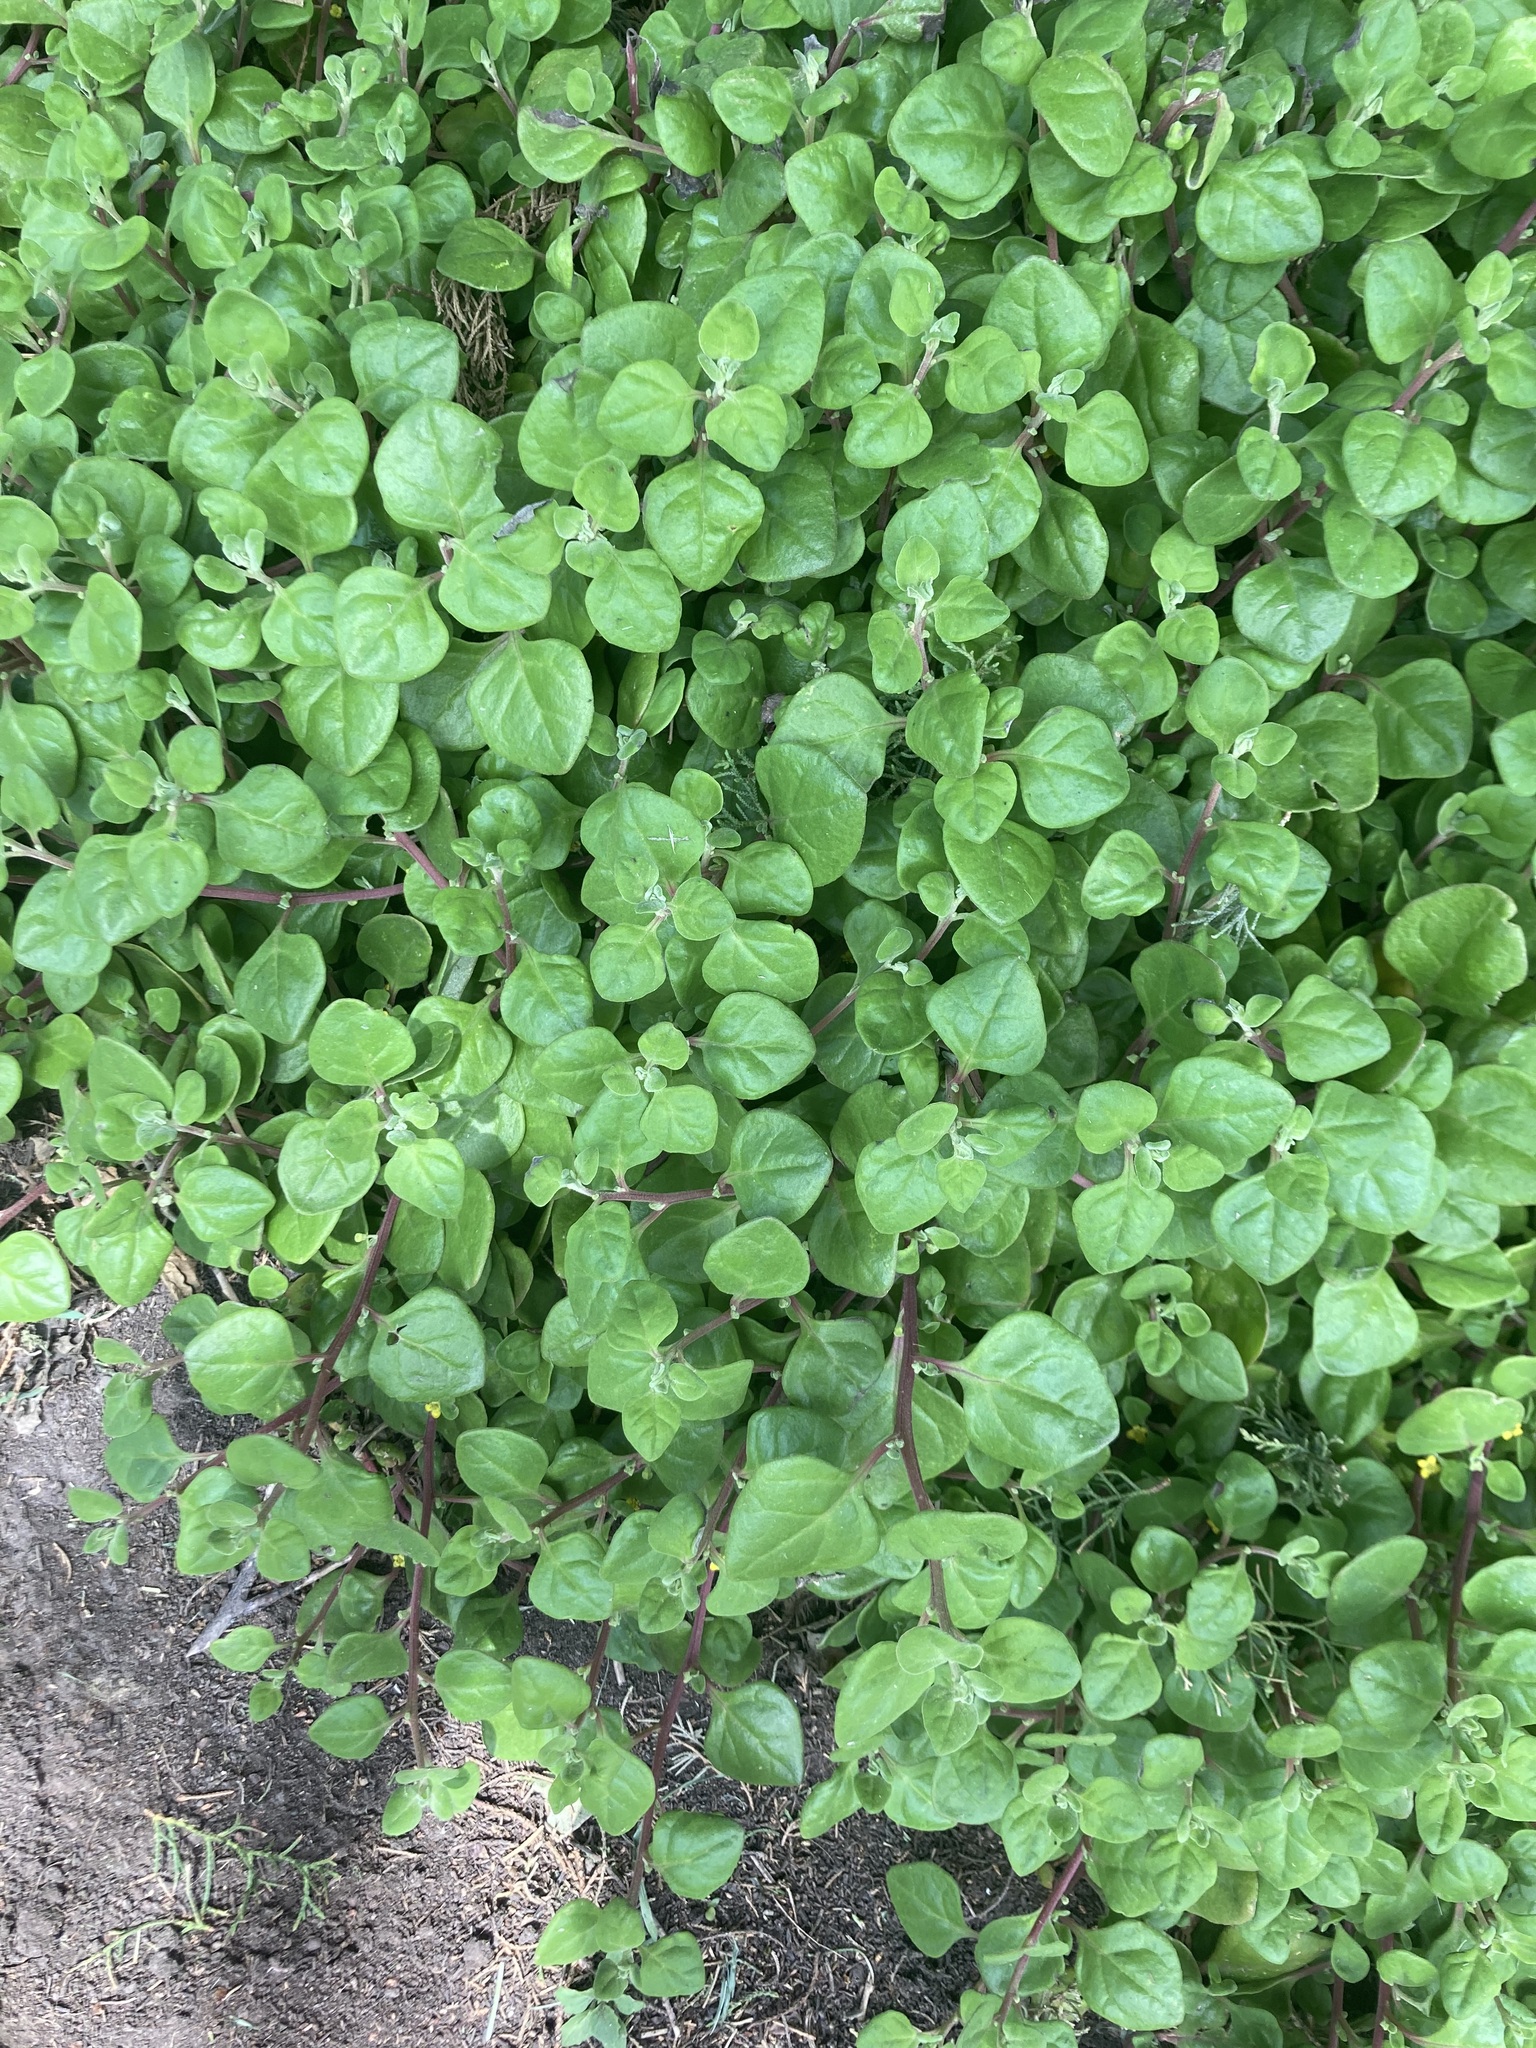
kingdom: Plantae
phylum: Tracheophyta
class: Magnoliopsida
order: Caryophyllales
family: Aizoaceae
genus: Tetragonia
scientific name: Tetragonia implexicoma
